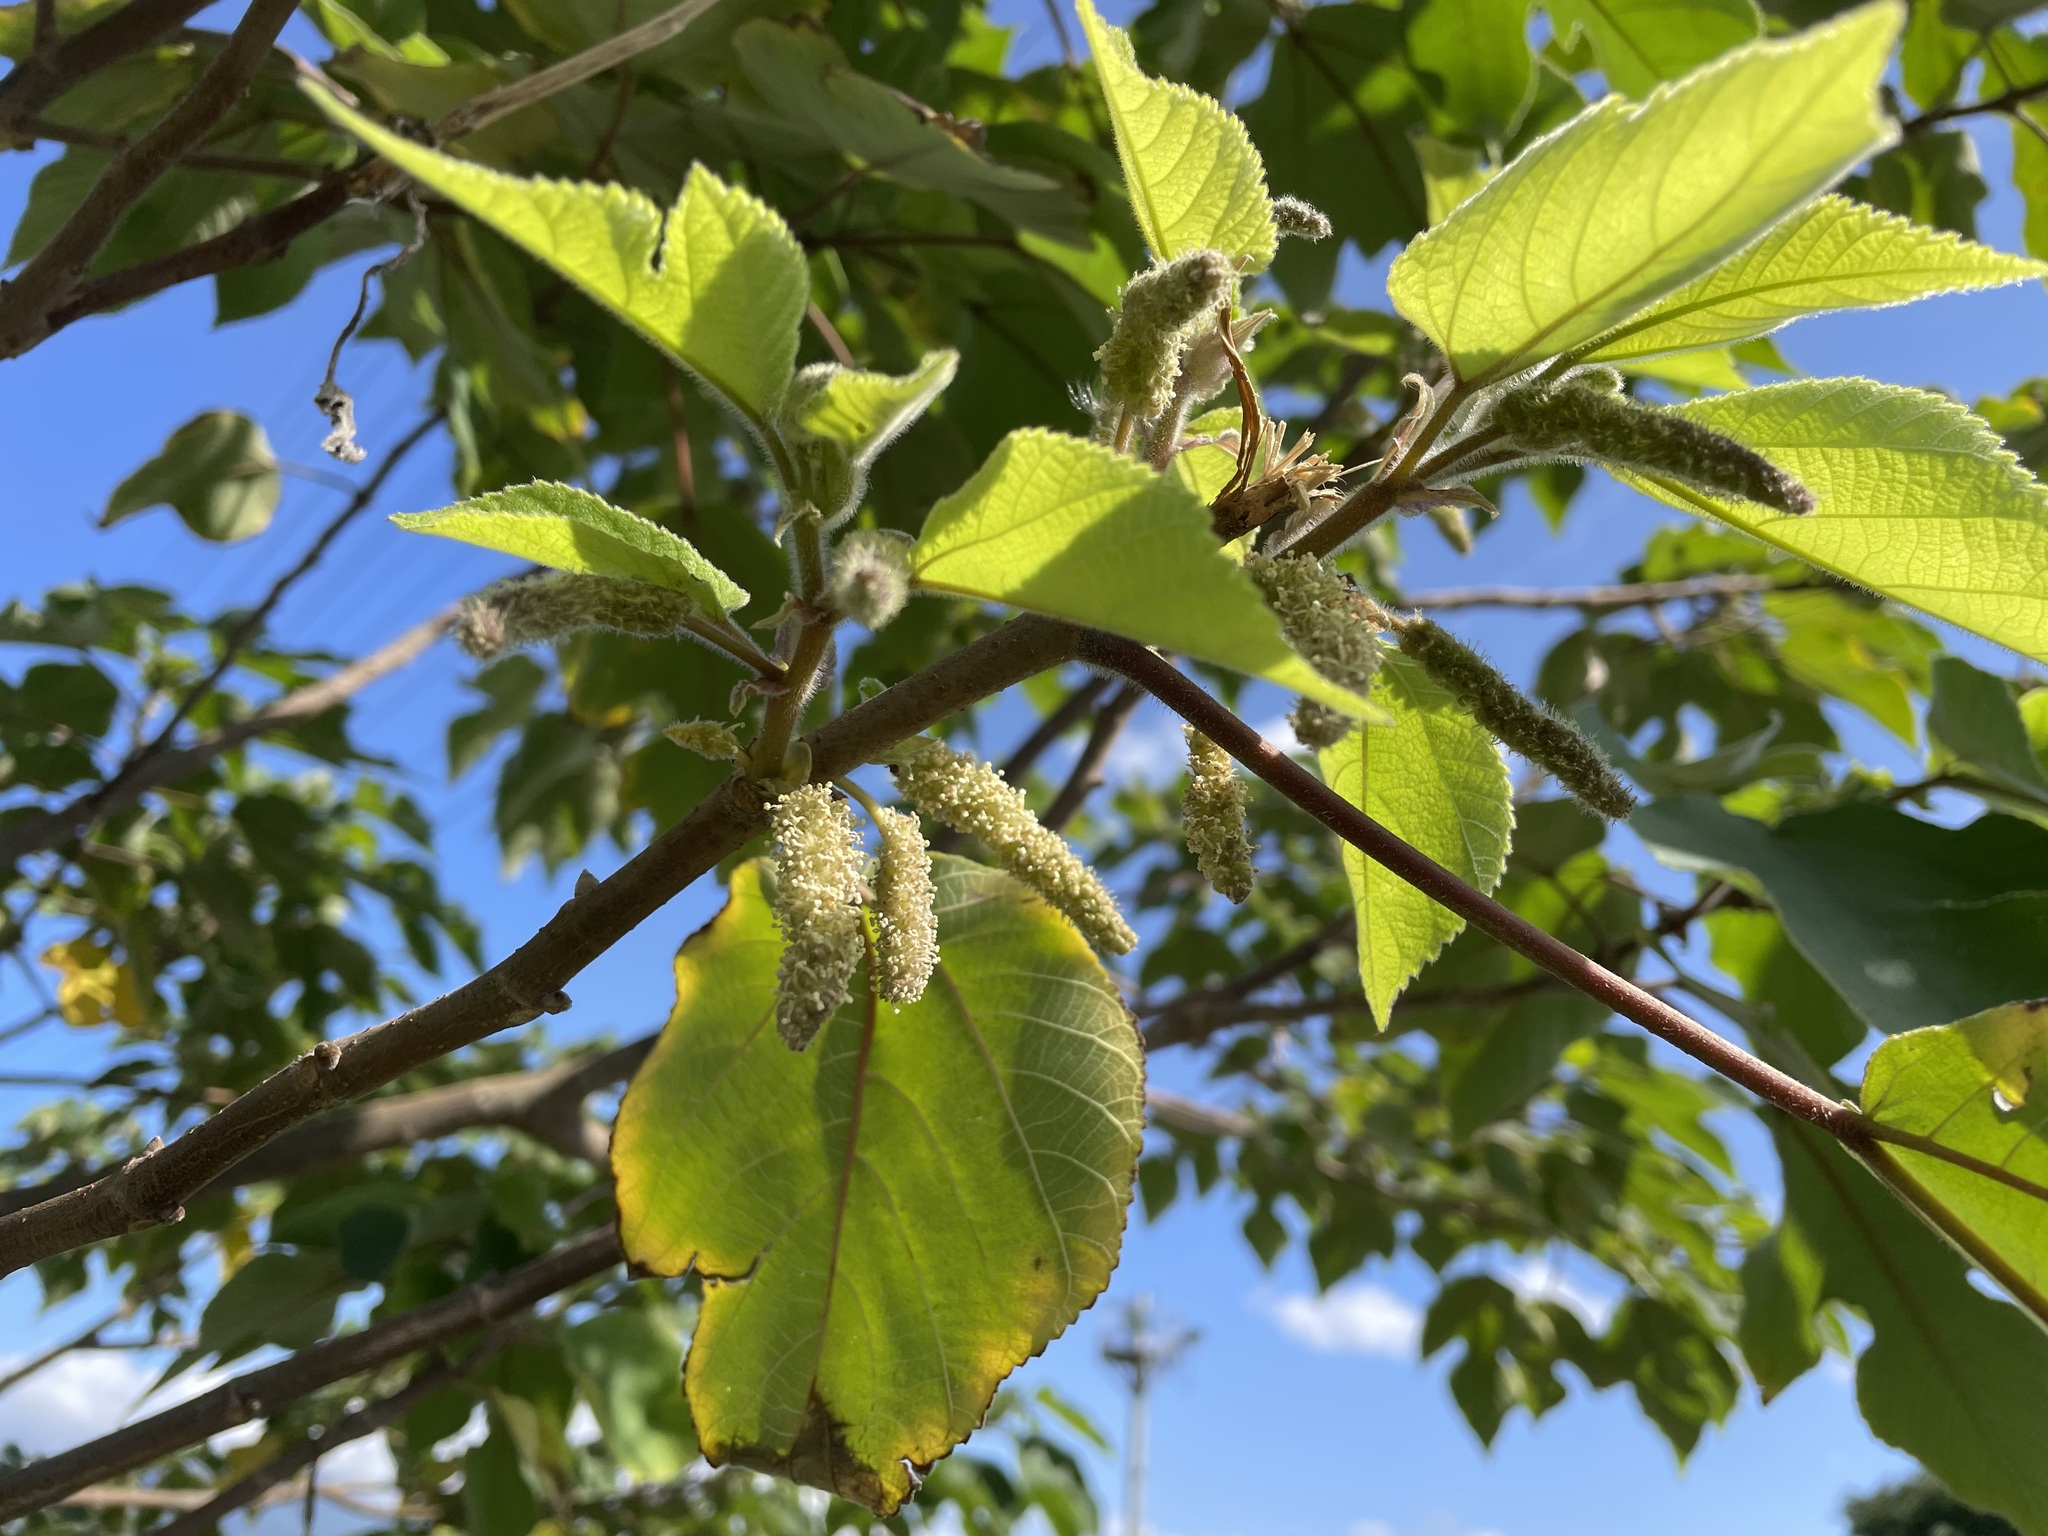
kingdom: Plantae
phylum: Tracheophyta
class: Magnoliopsida
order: Rosales
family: Moraceae
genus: Broussonetia
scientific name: Broussonetia papyrifera
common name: Paper mulberry
